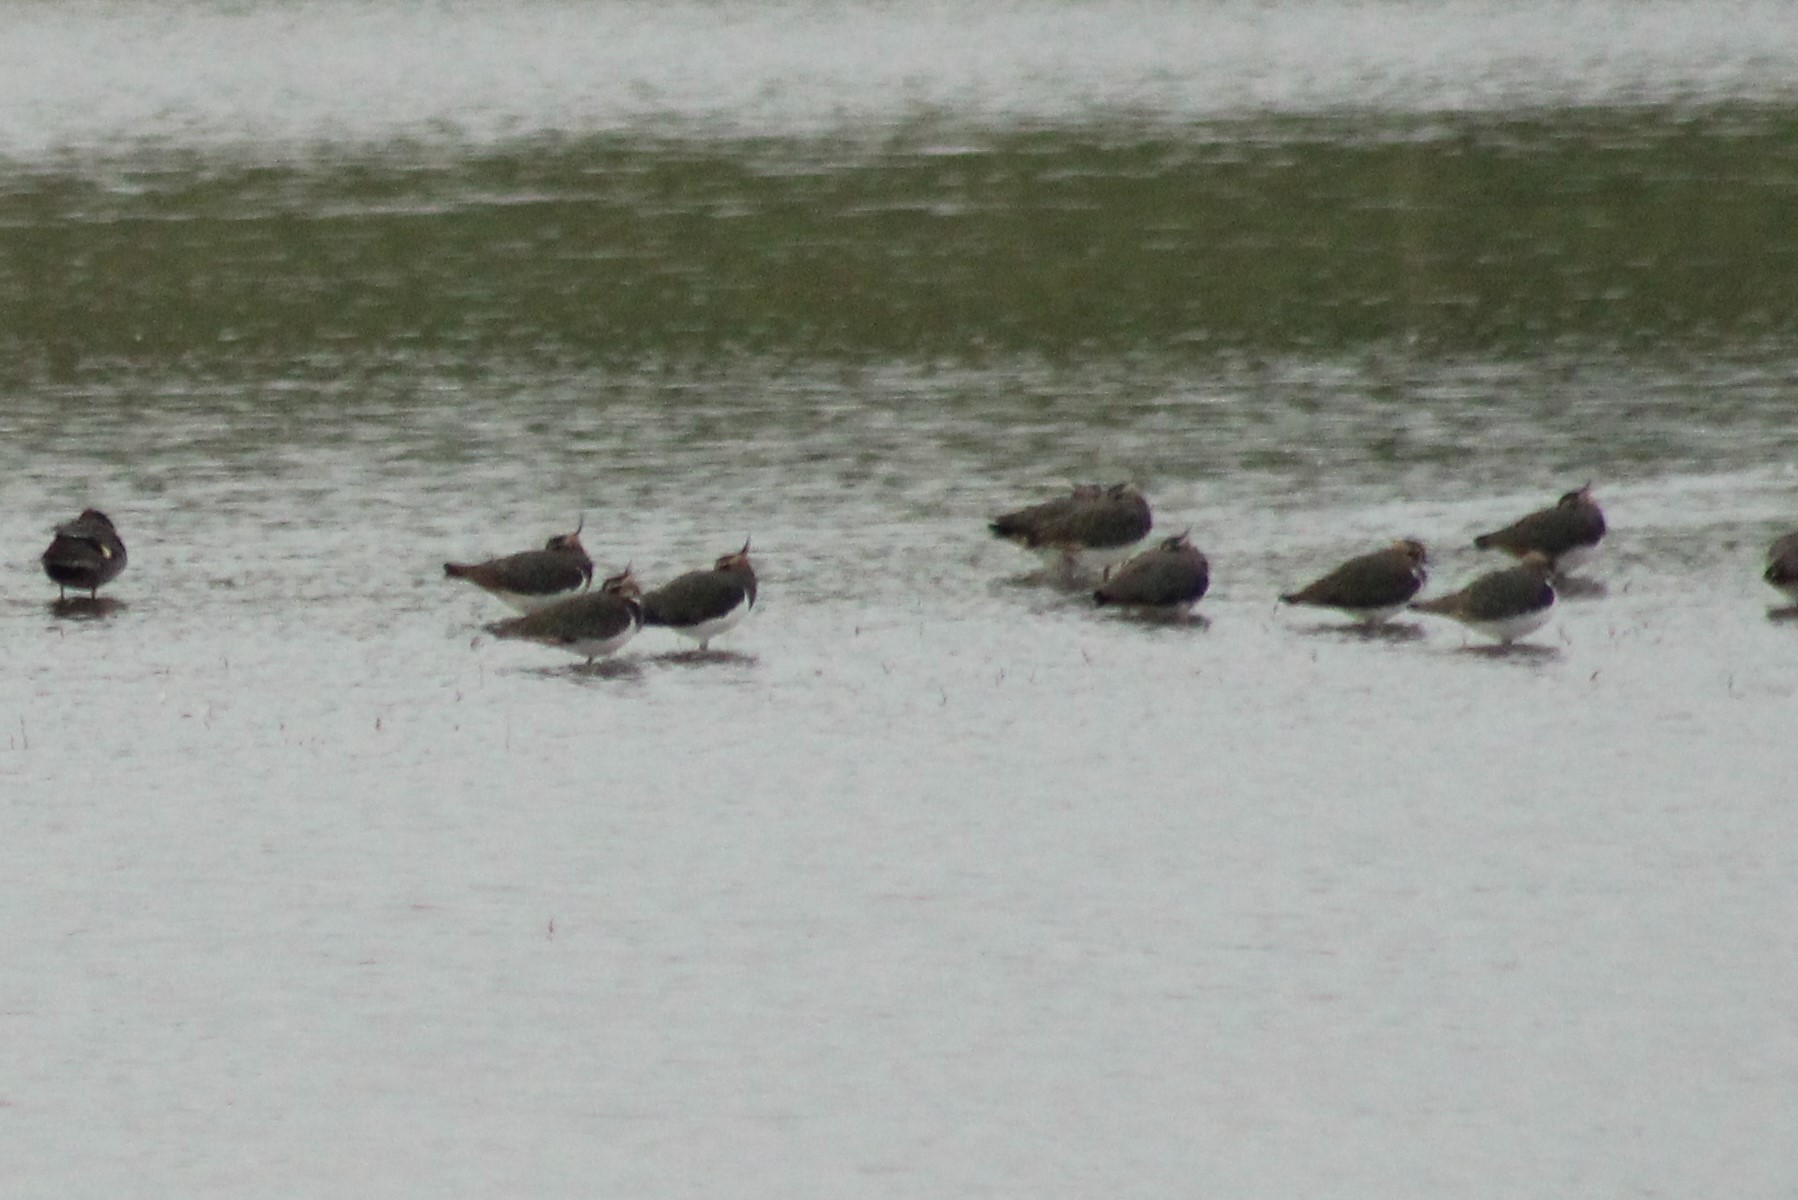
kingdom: Animalia
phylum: Chordata
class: Aves
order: Charadriiformes
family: Charadriidae
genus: Vanellus
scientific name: Vanellus vanellus
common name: Northern lapwing
